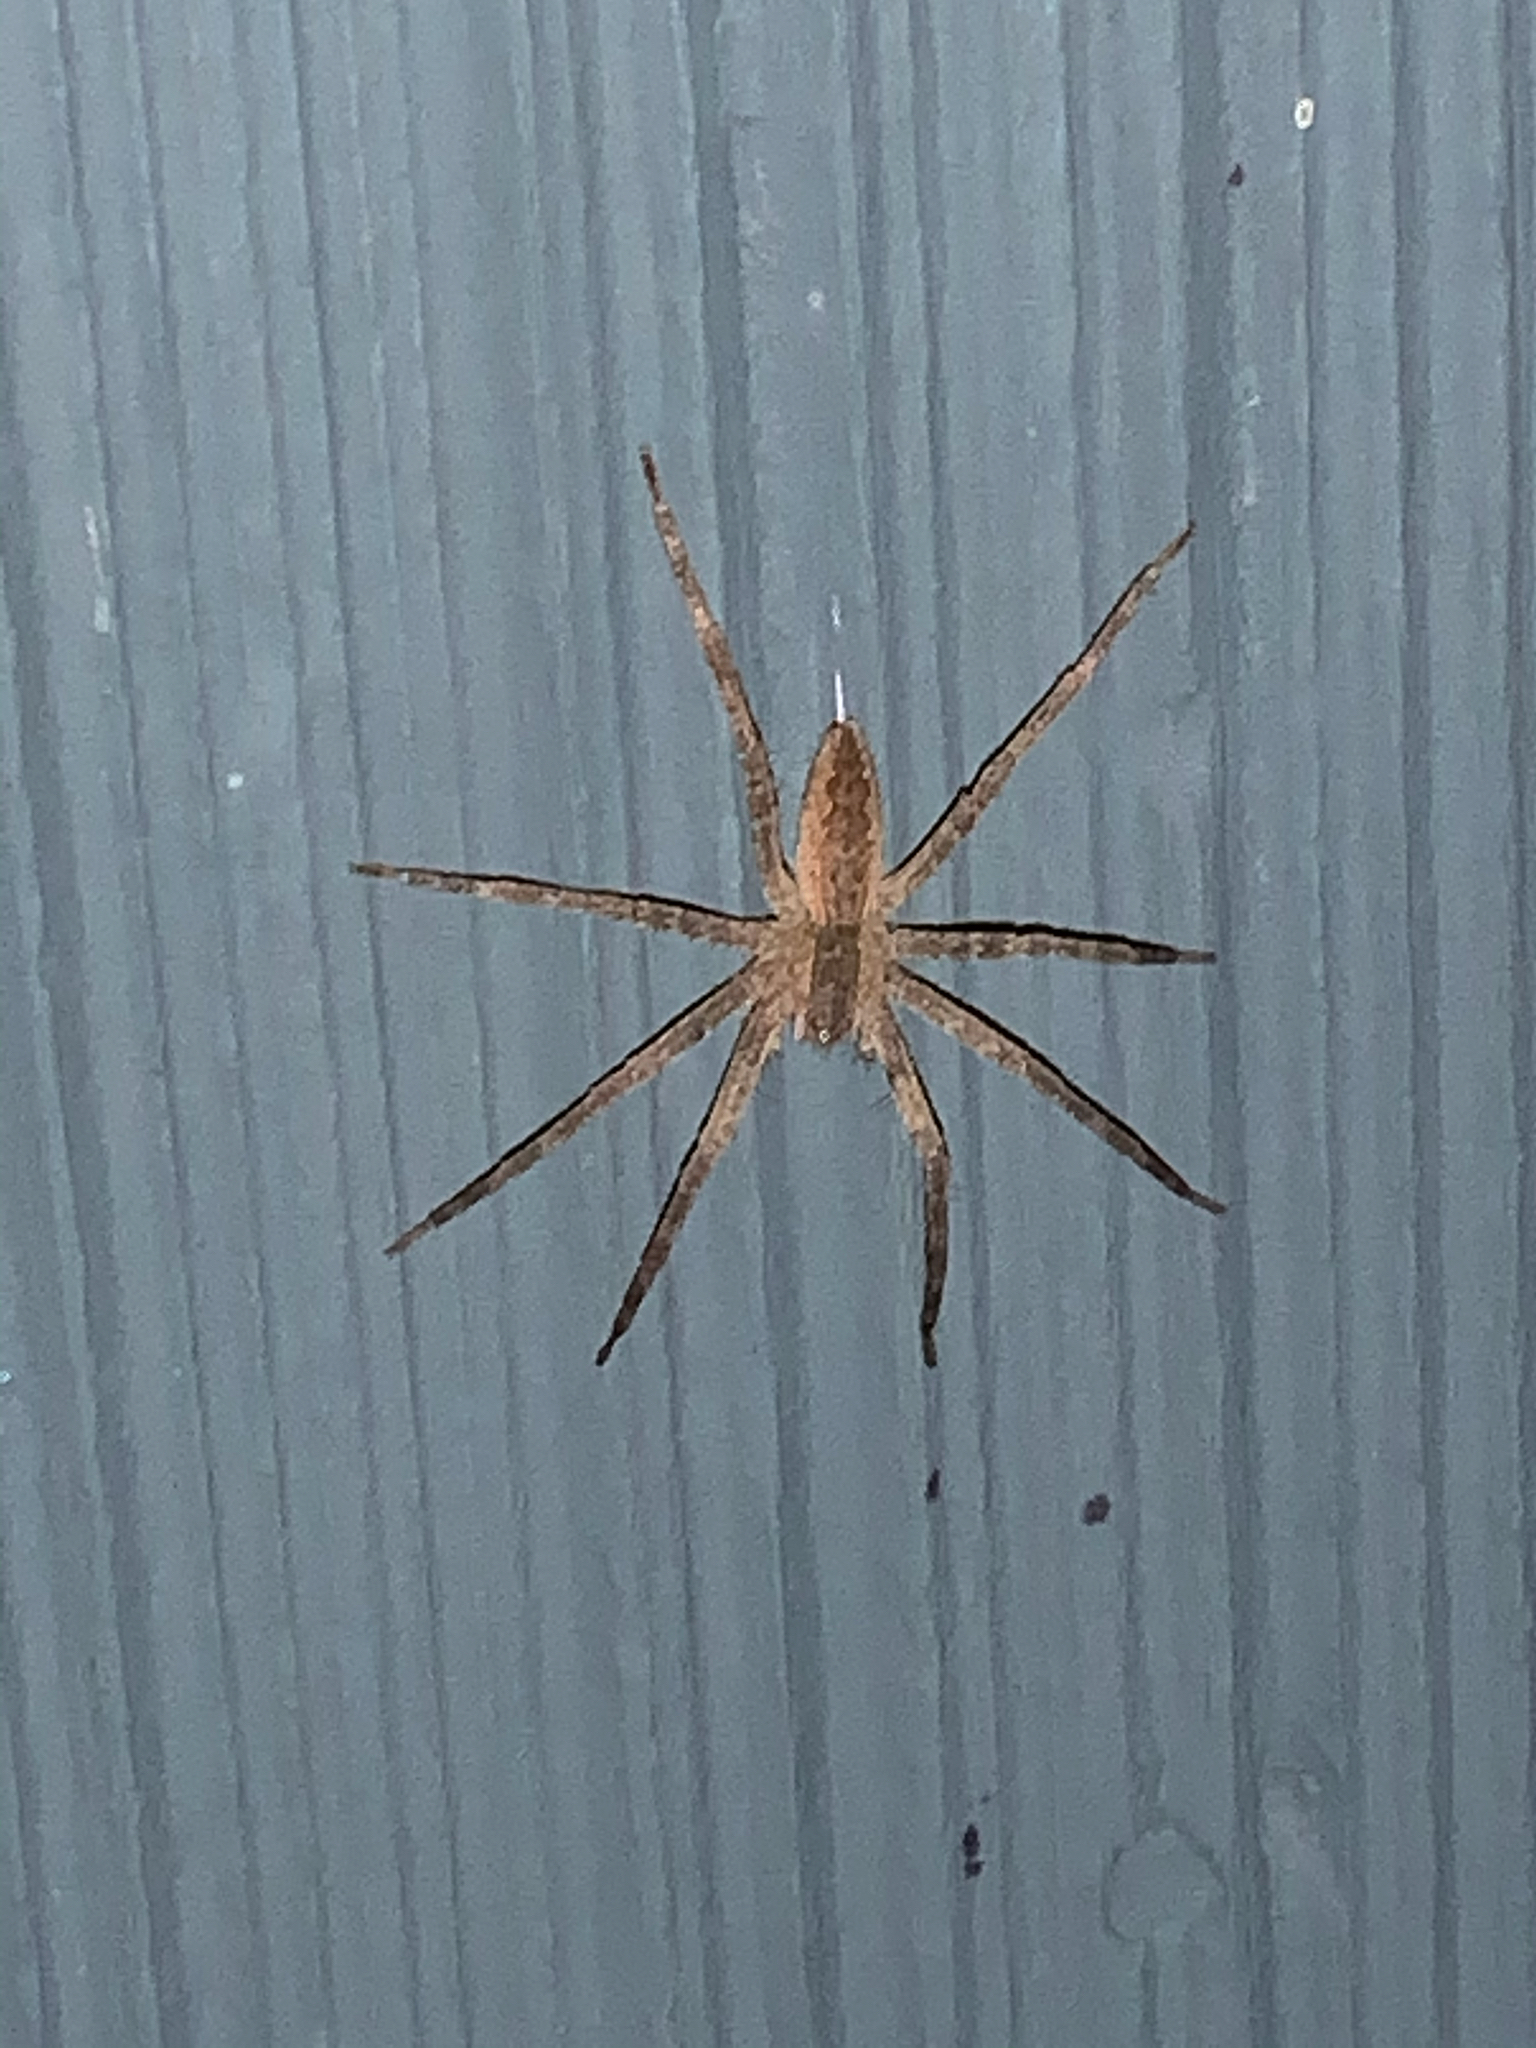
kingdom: Animalia
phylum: Arthropoda
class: Arachnida
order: Araneae
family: Pisauridae
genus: Pisaurina
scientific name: Pisaurina mira
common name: American nursery web spider
